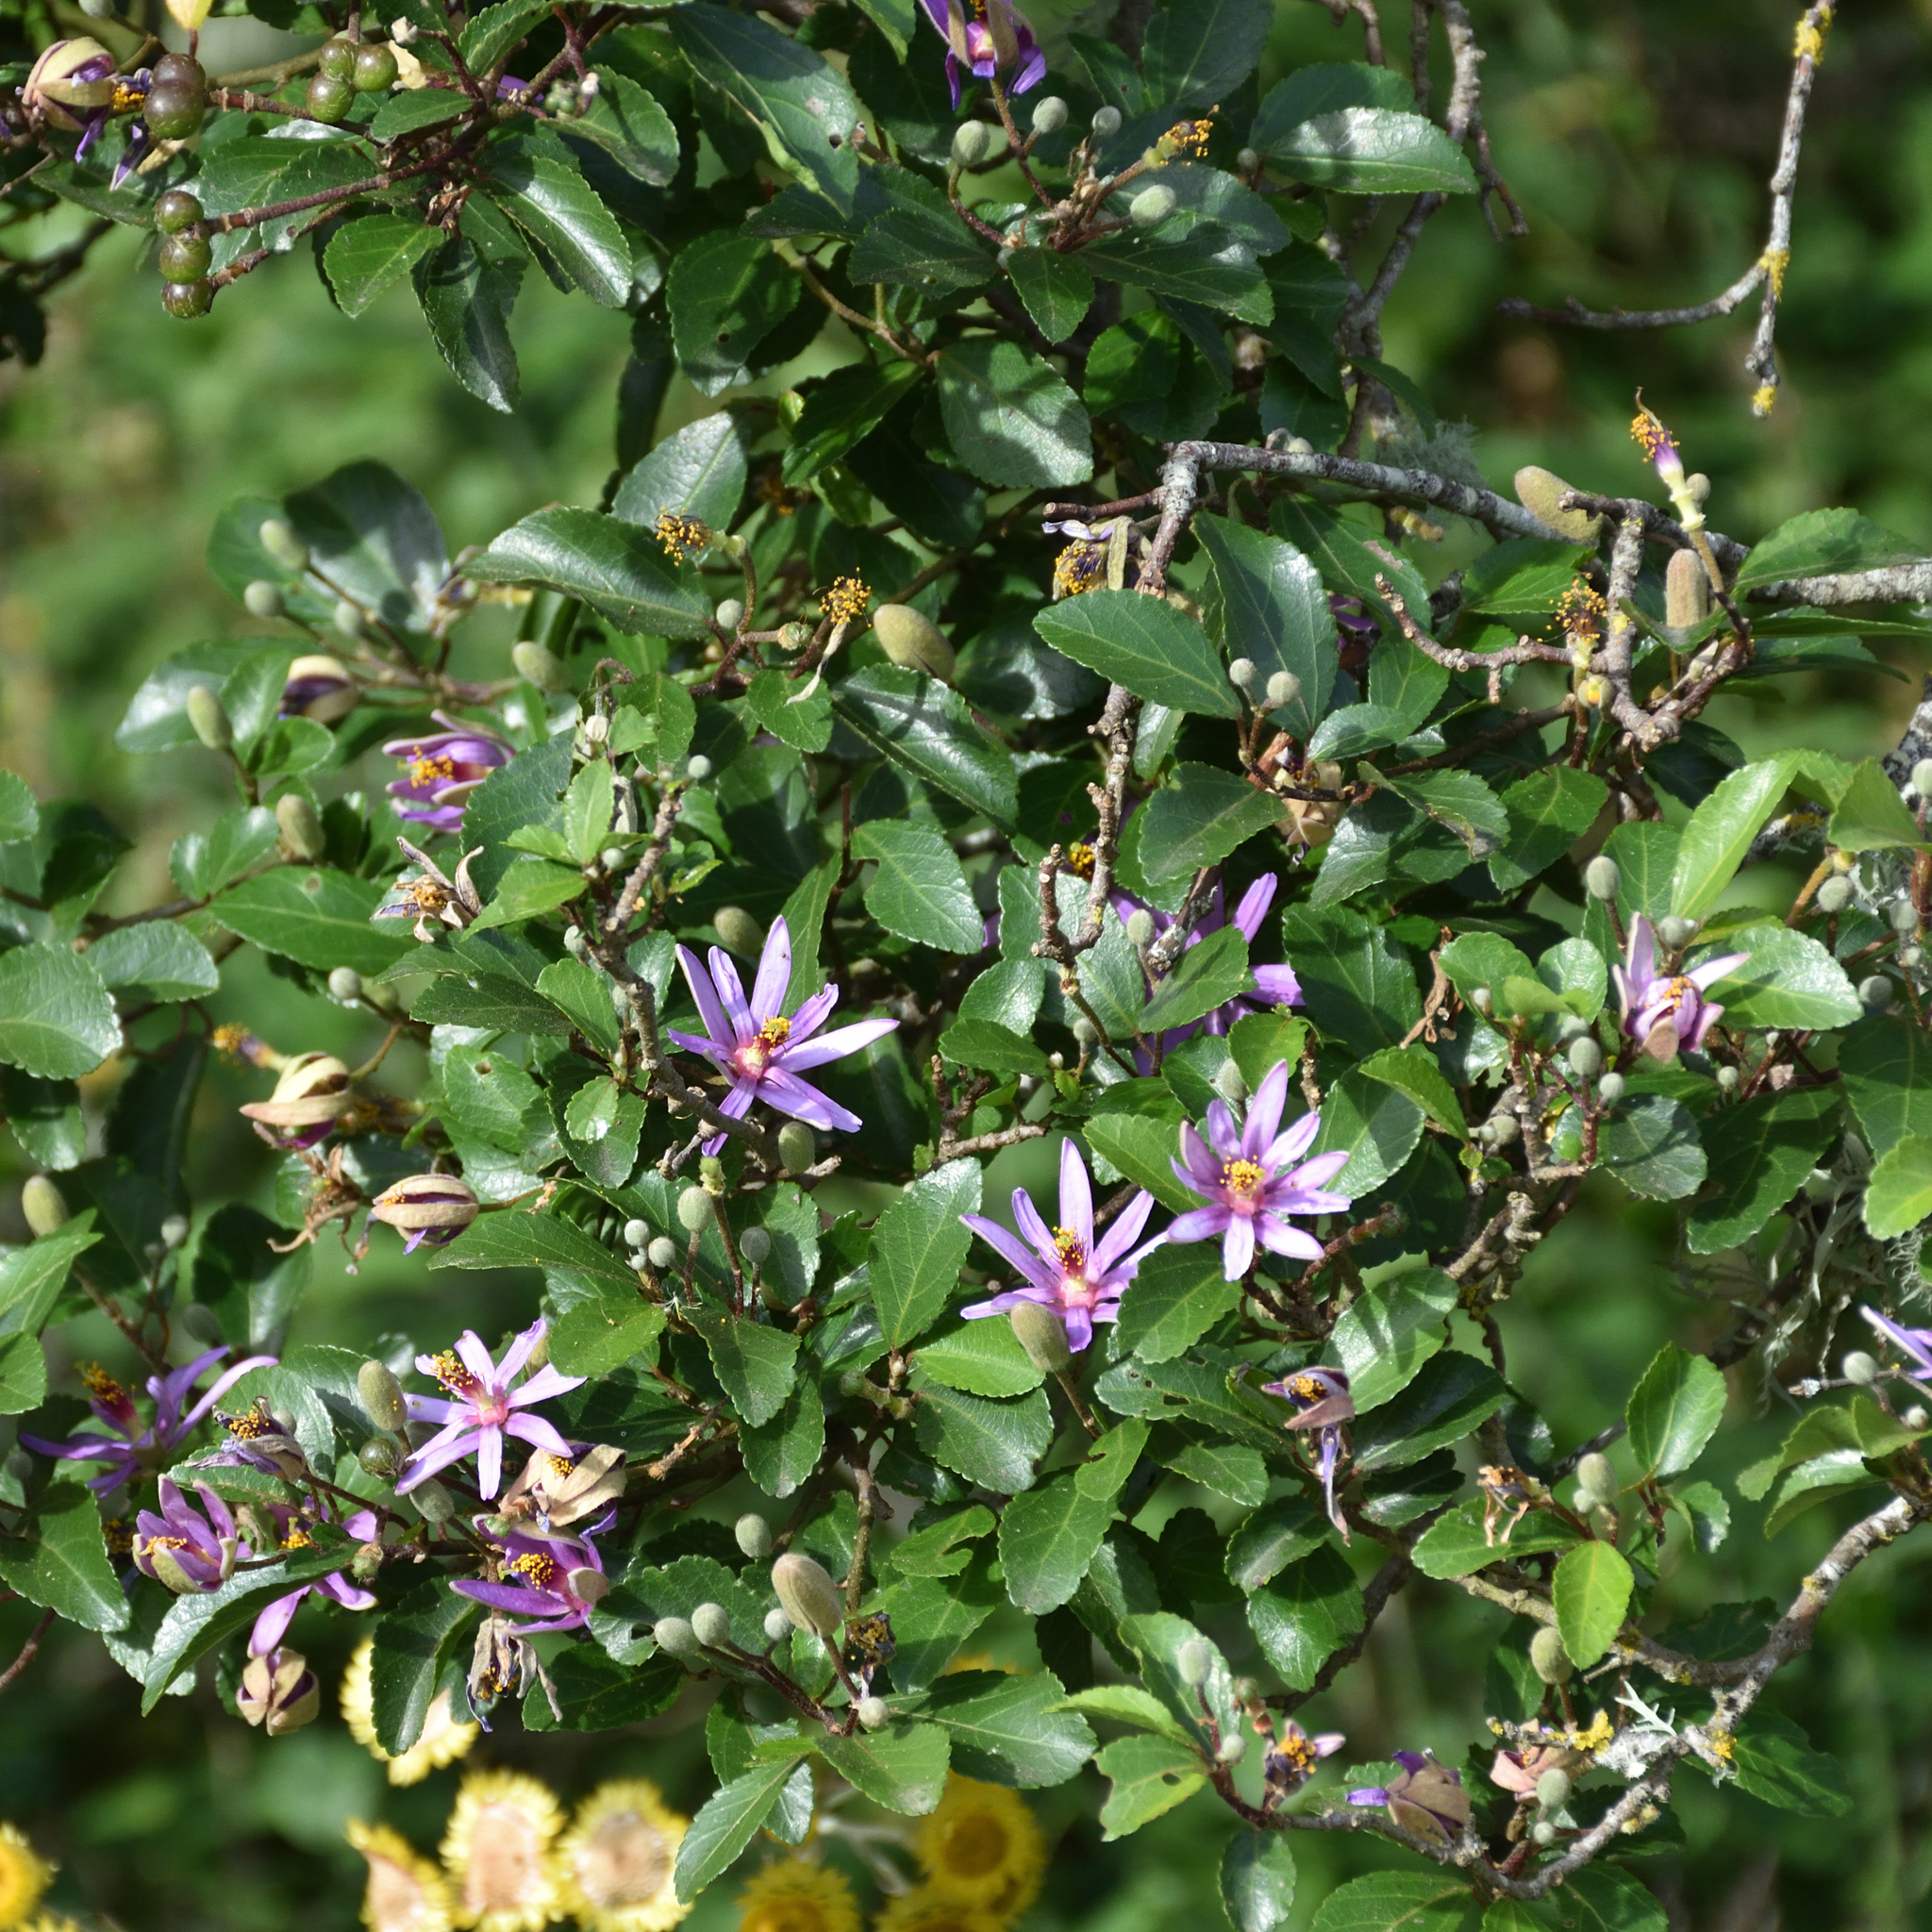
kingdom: Plantae
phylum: Tracheophyta
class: Magnoliopsida
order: Malvales
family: Malvaceae
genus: Grewia
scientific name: Grewia occidentalis
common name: Crossberry
